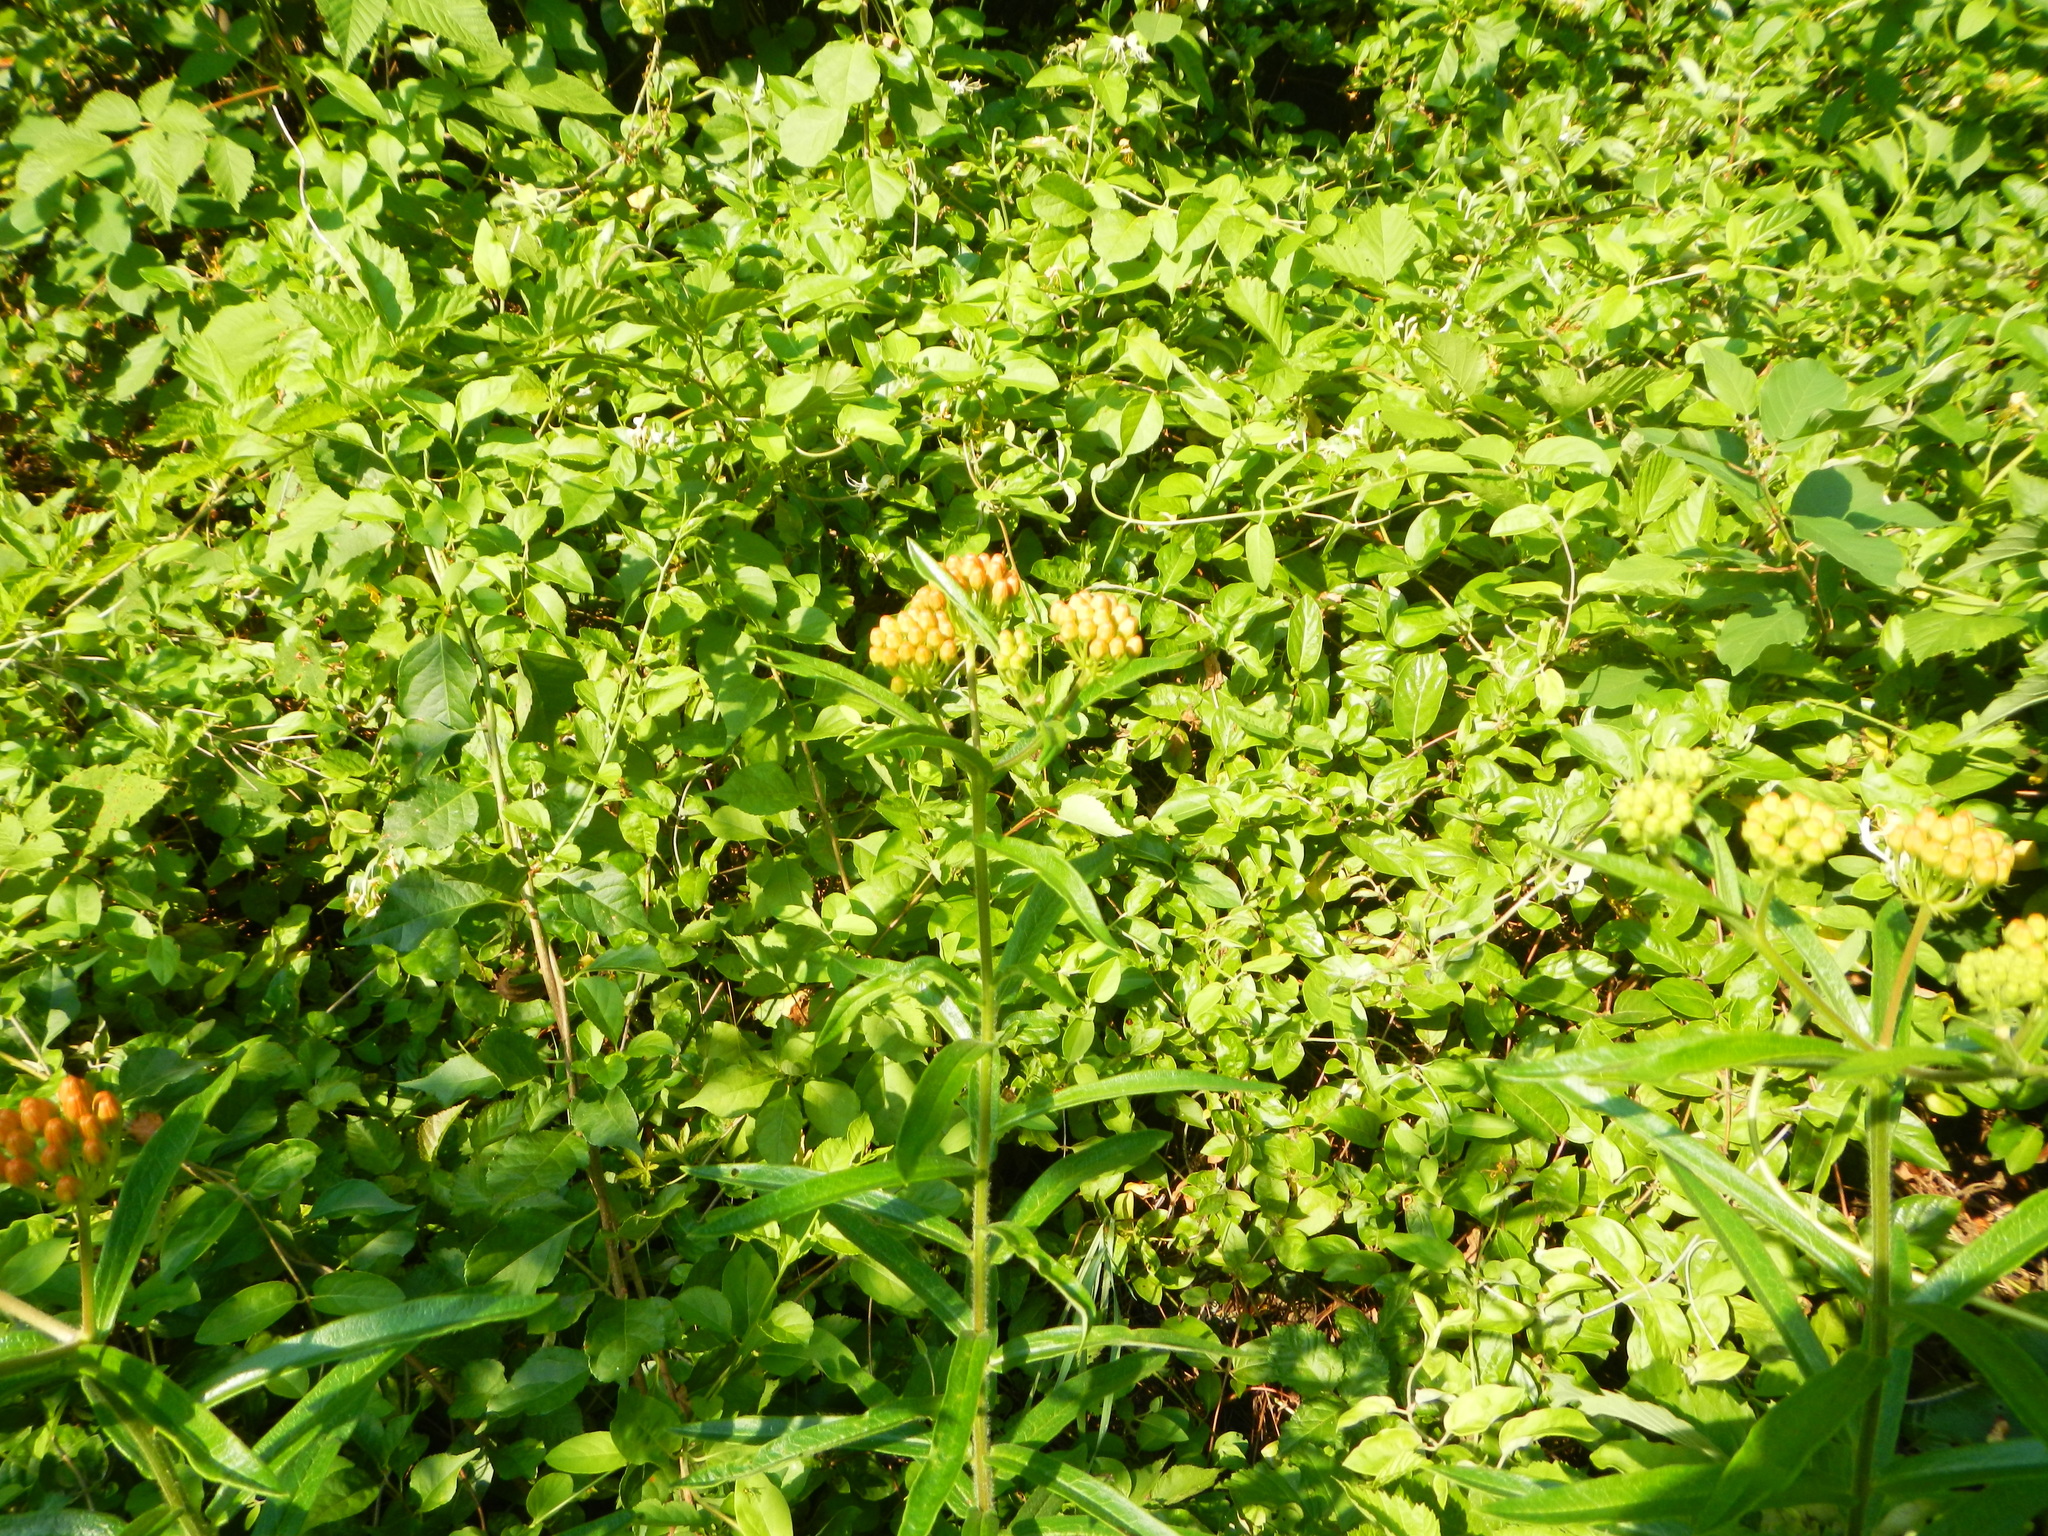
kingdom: Plantae
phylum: Tracheophyta
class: Magnoliopsida
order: Gentianales
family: Apocynaceae
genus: Asclepias
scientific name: Asclepias tuberosa
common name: Butterfly milkweed
